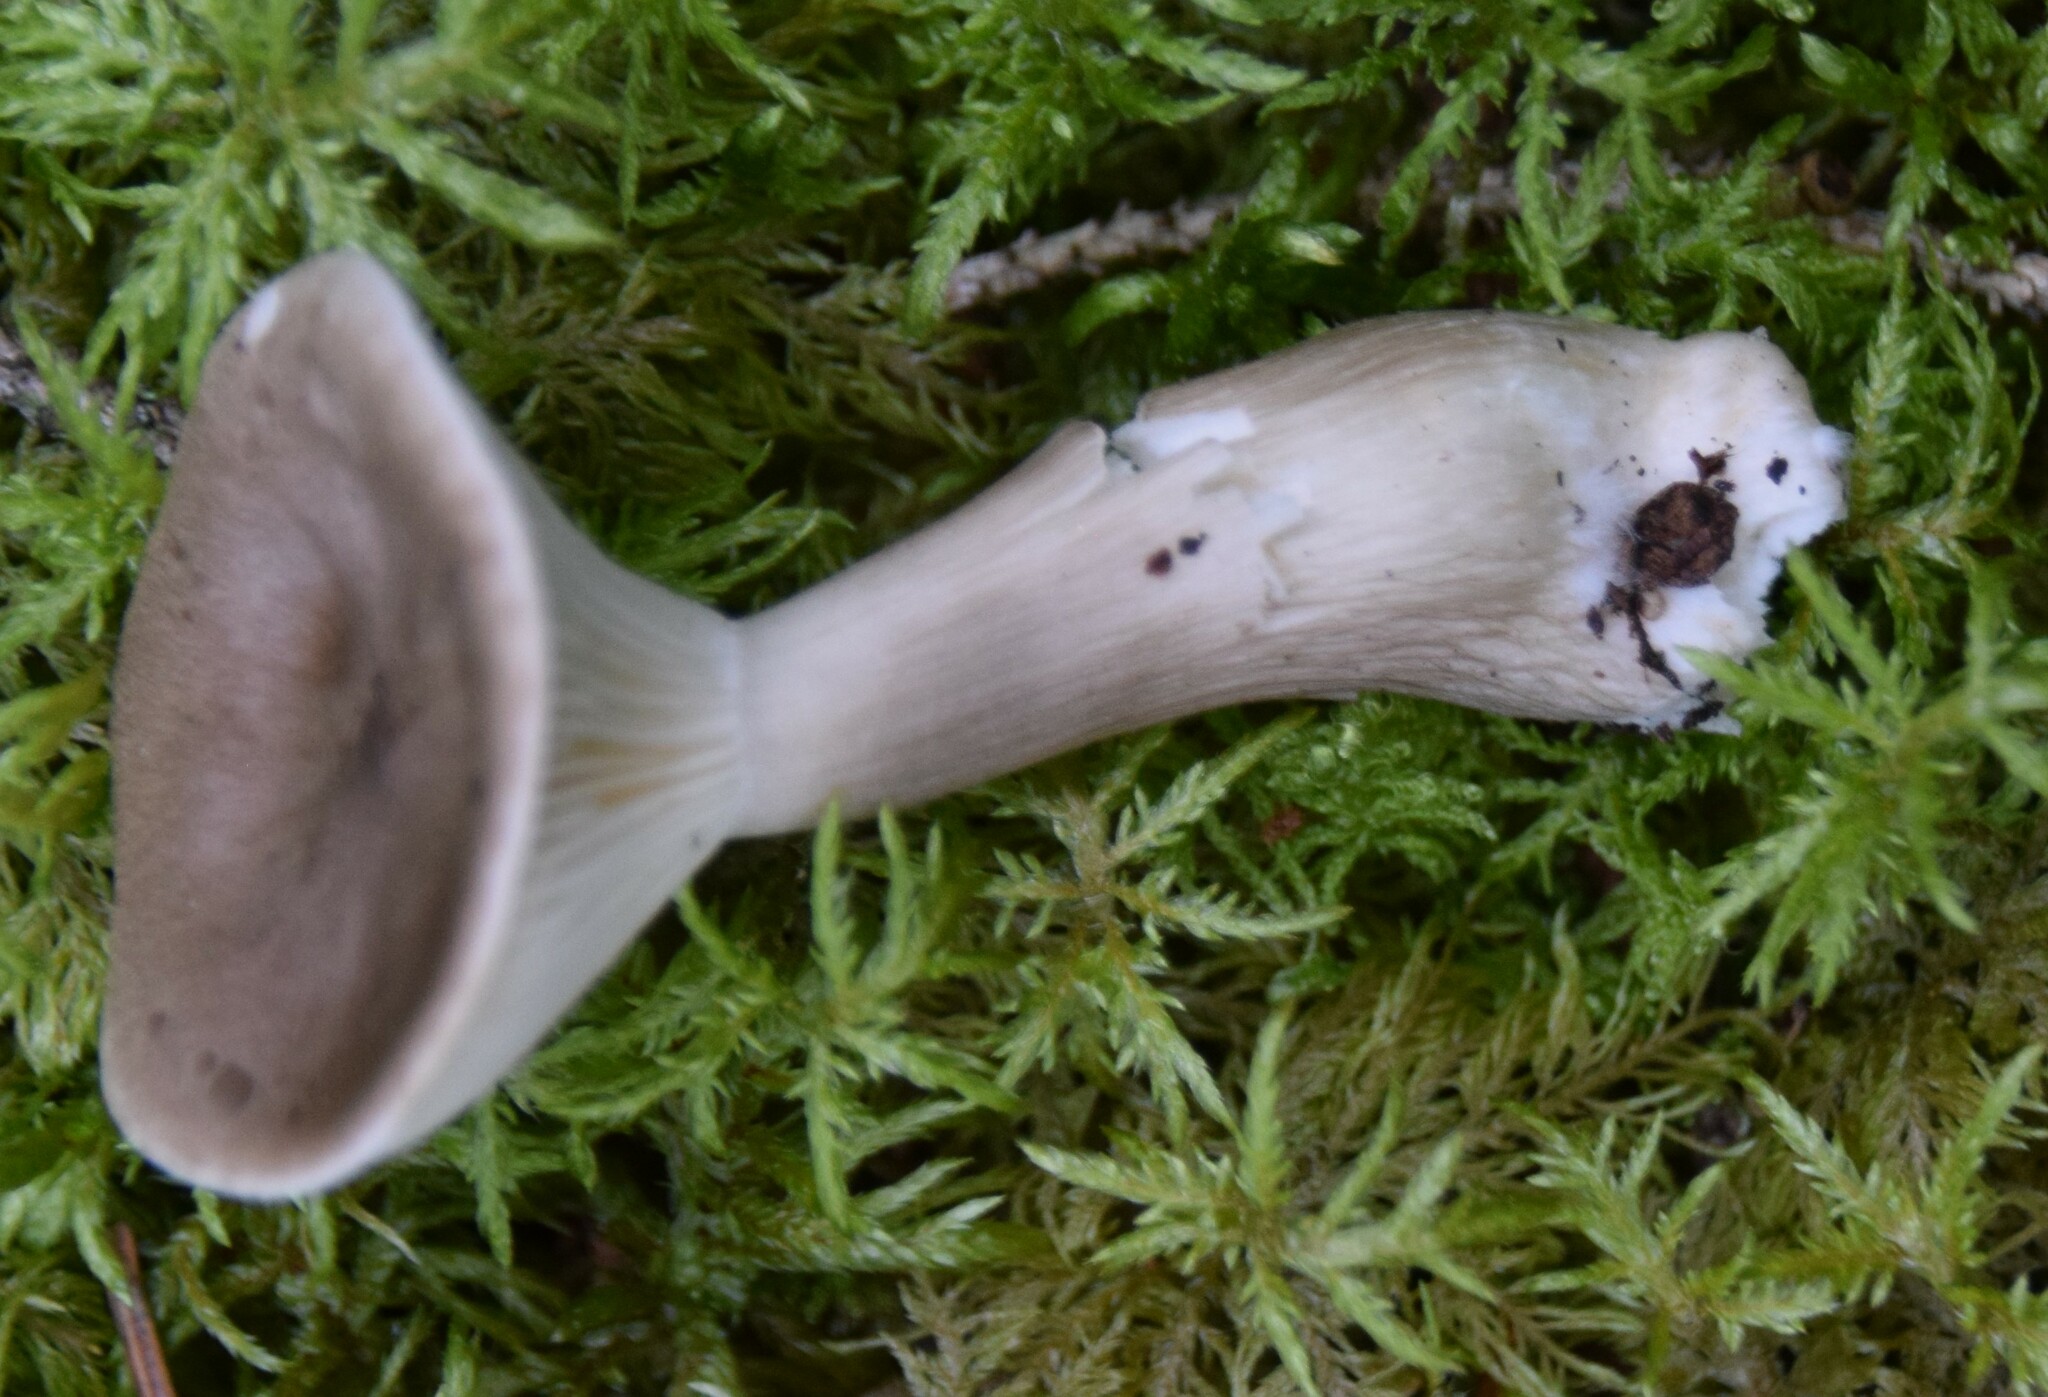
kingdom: Fungi
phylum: Basidiomycota
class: Agaricomycetes
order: Agaricales
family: Hygrophoraceae
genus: Ampulloclitocybe
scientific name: Ampulloclitocybe clavipes
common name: Club foot
